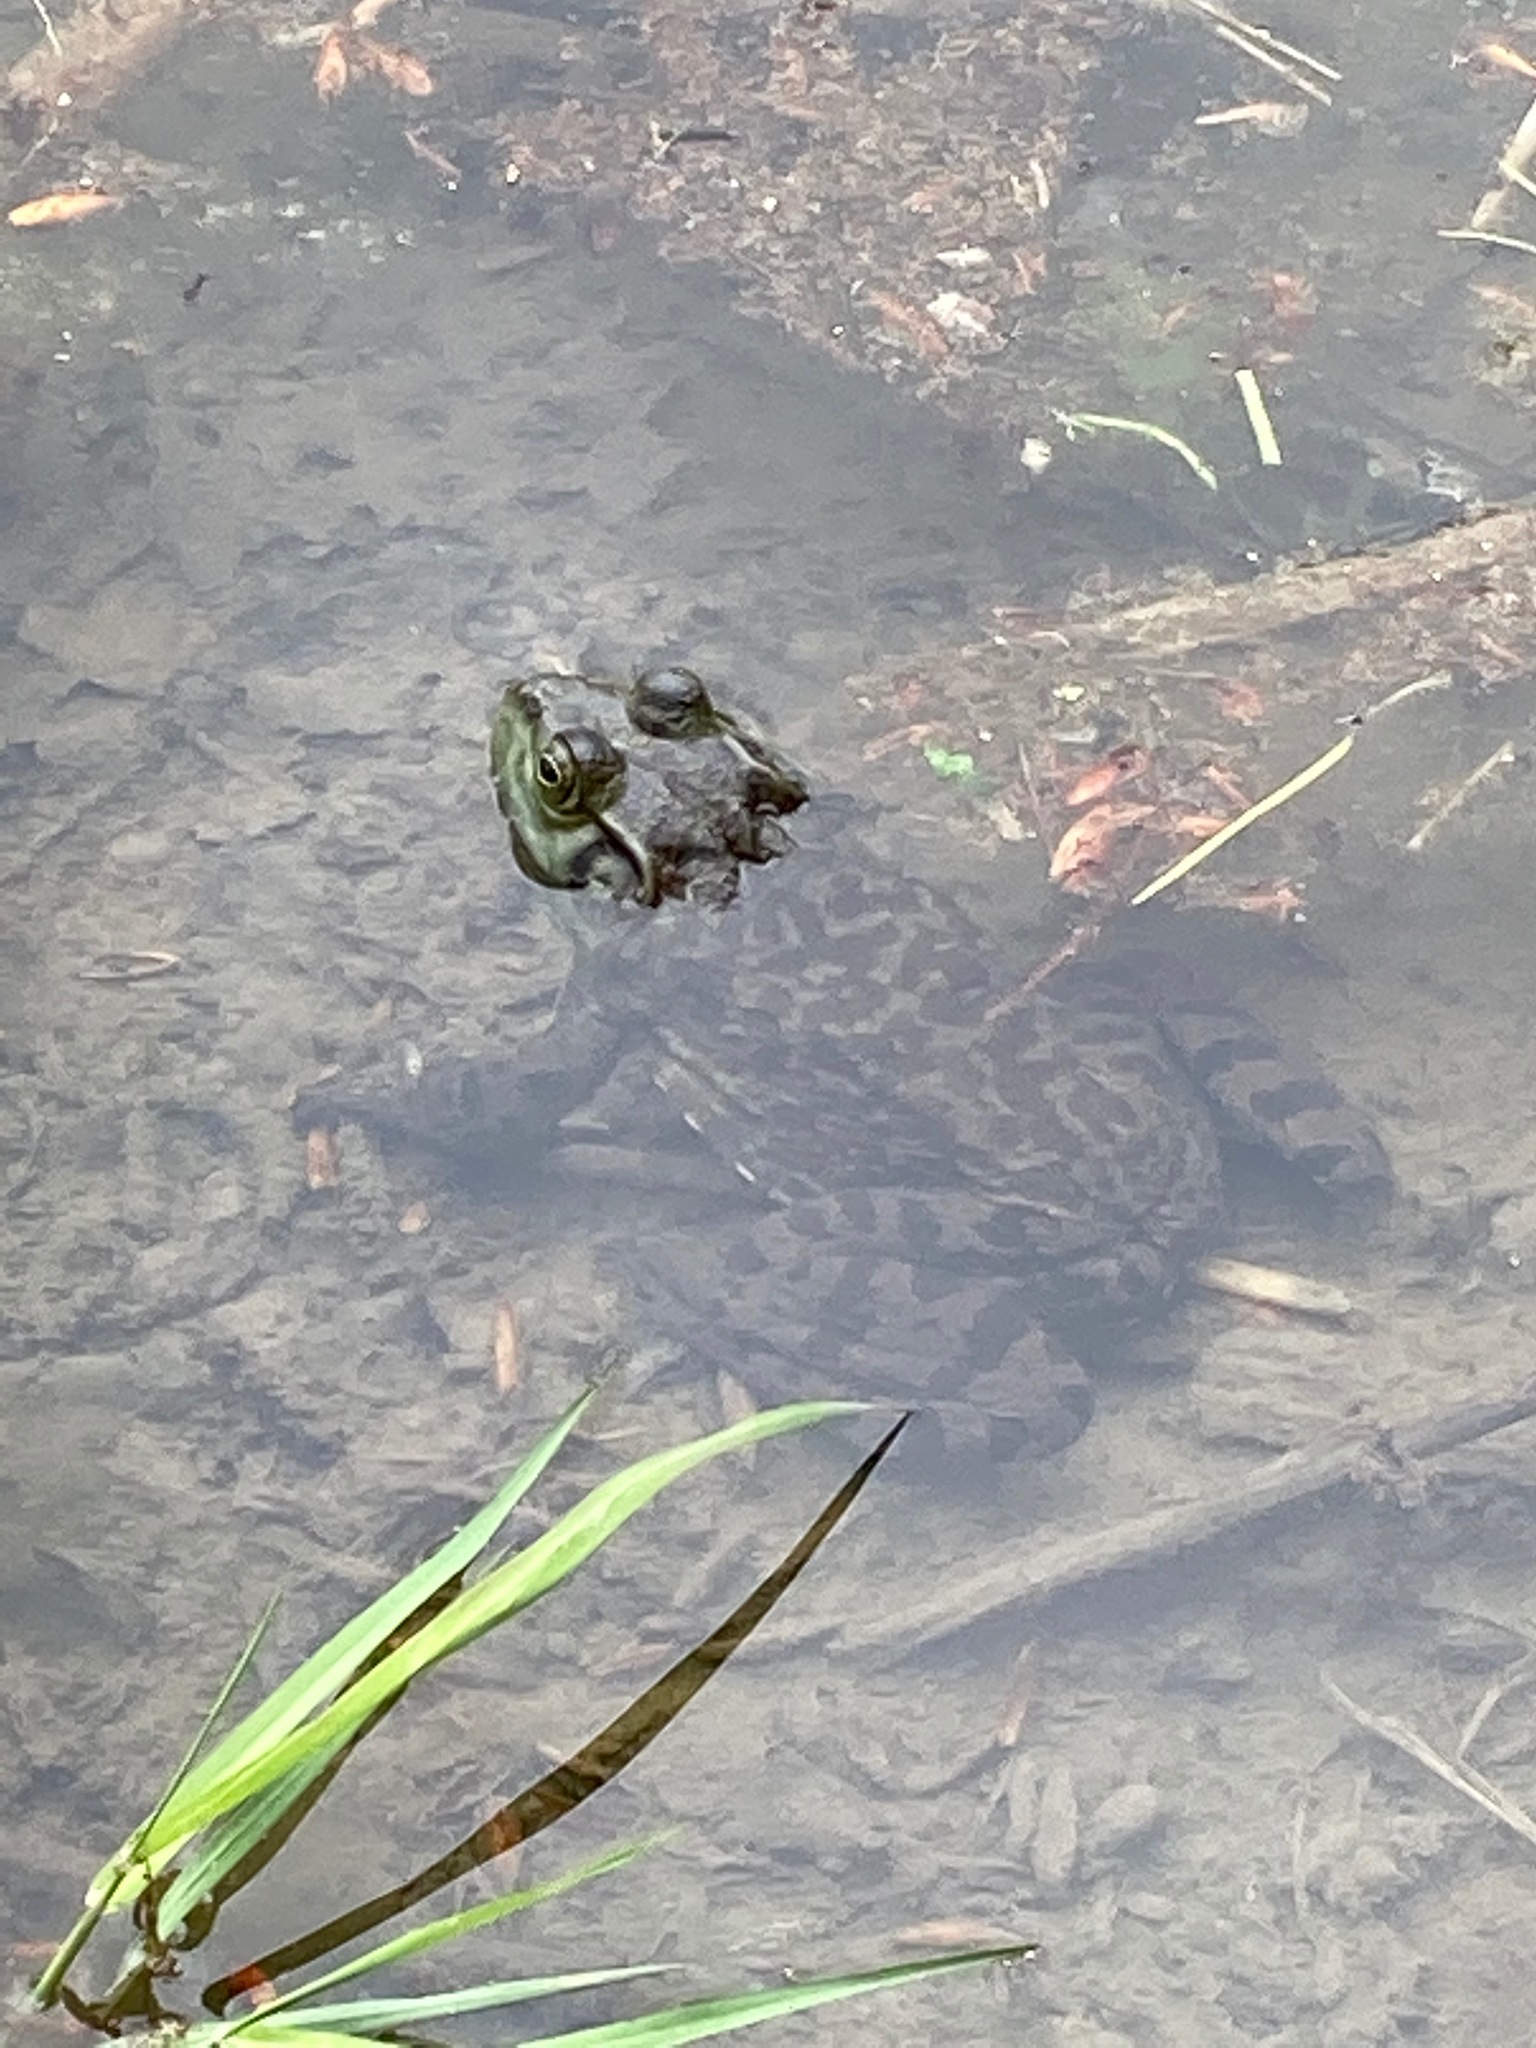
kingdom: Animalia
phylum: Chordata
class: Amphibia
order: Anura
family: Ranidae
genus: Lithobates
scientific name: Lithobates catesbeianus
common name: American bullfrog
